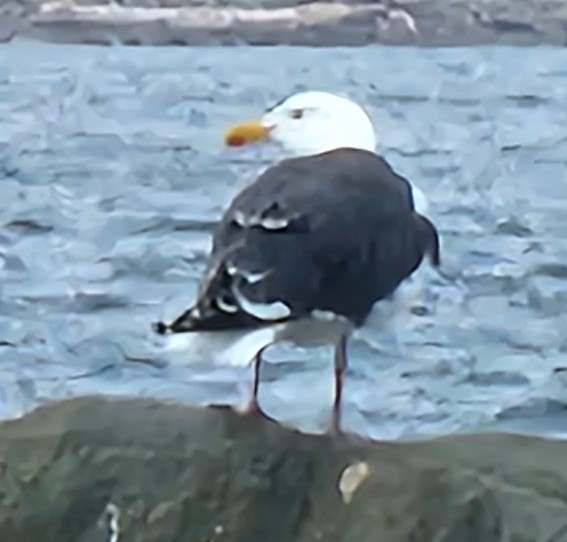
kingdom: Animalia
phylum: Chordata
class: Aves
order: Charadriiformes
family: Laridae
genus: Larus
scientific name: Larus marinus
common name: Great black-backed gull
